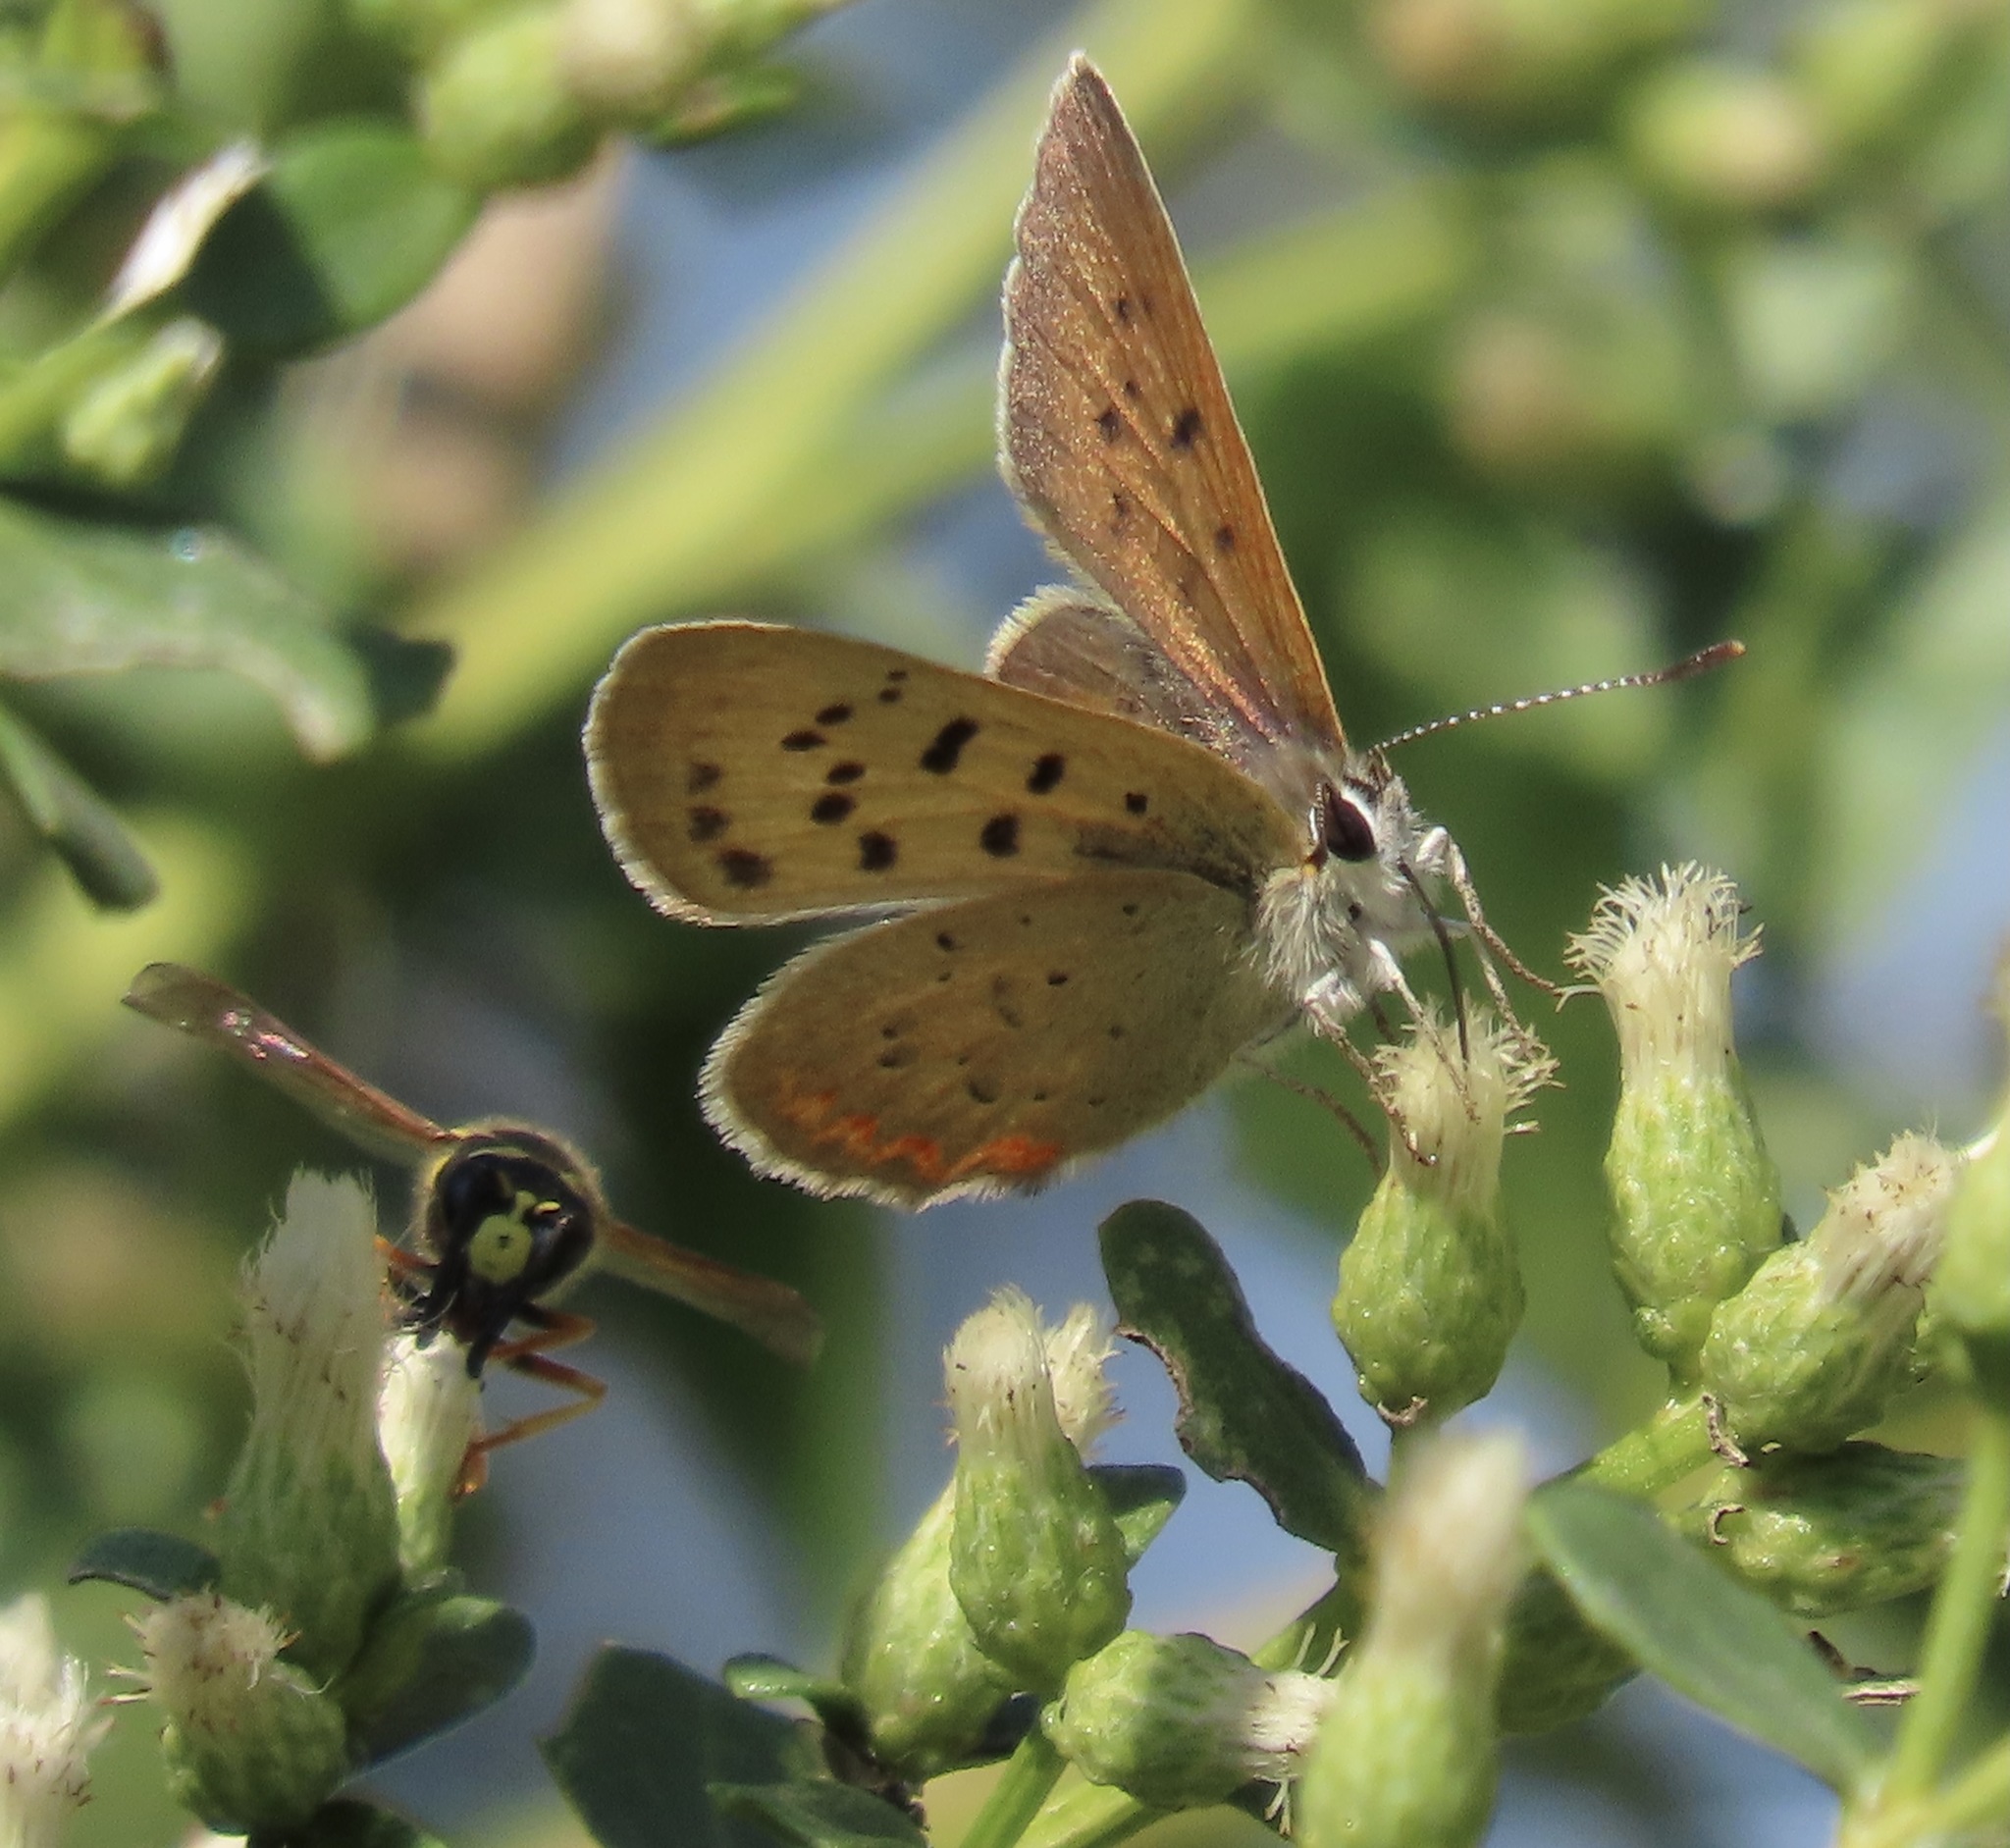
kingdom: Animalia
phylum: Arthropoda
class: Insecta
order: Lepidoptera
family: Lycaenidae
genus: Tharsalea
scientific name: Tharsalea helloides
